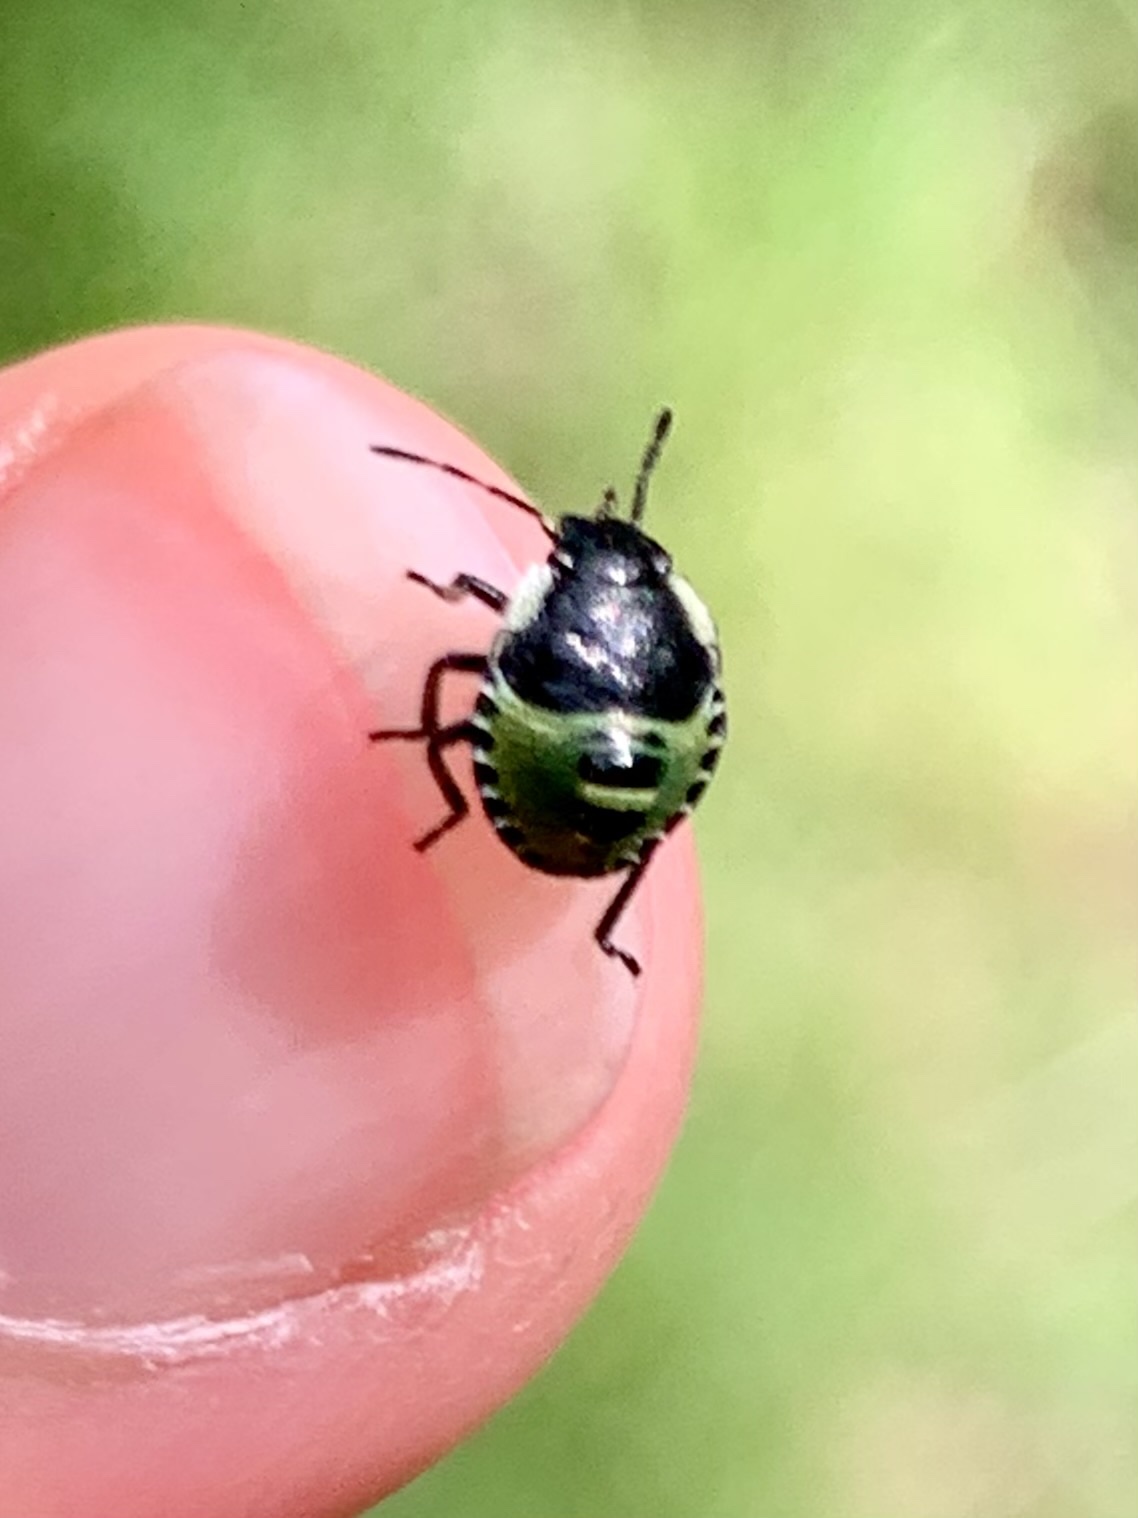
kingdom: Animalia
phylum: Arthropoda
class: Insecta
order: Hemiptera
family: Pentatomidae
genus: Palomena
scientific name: Palomena prasina
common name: Green shieldbug
